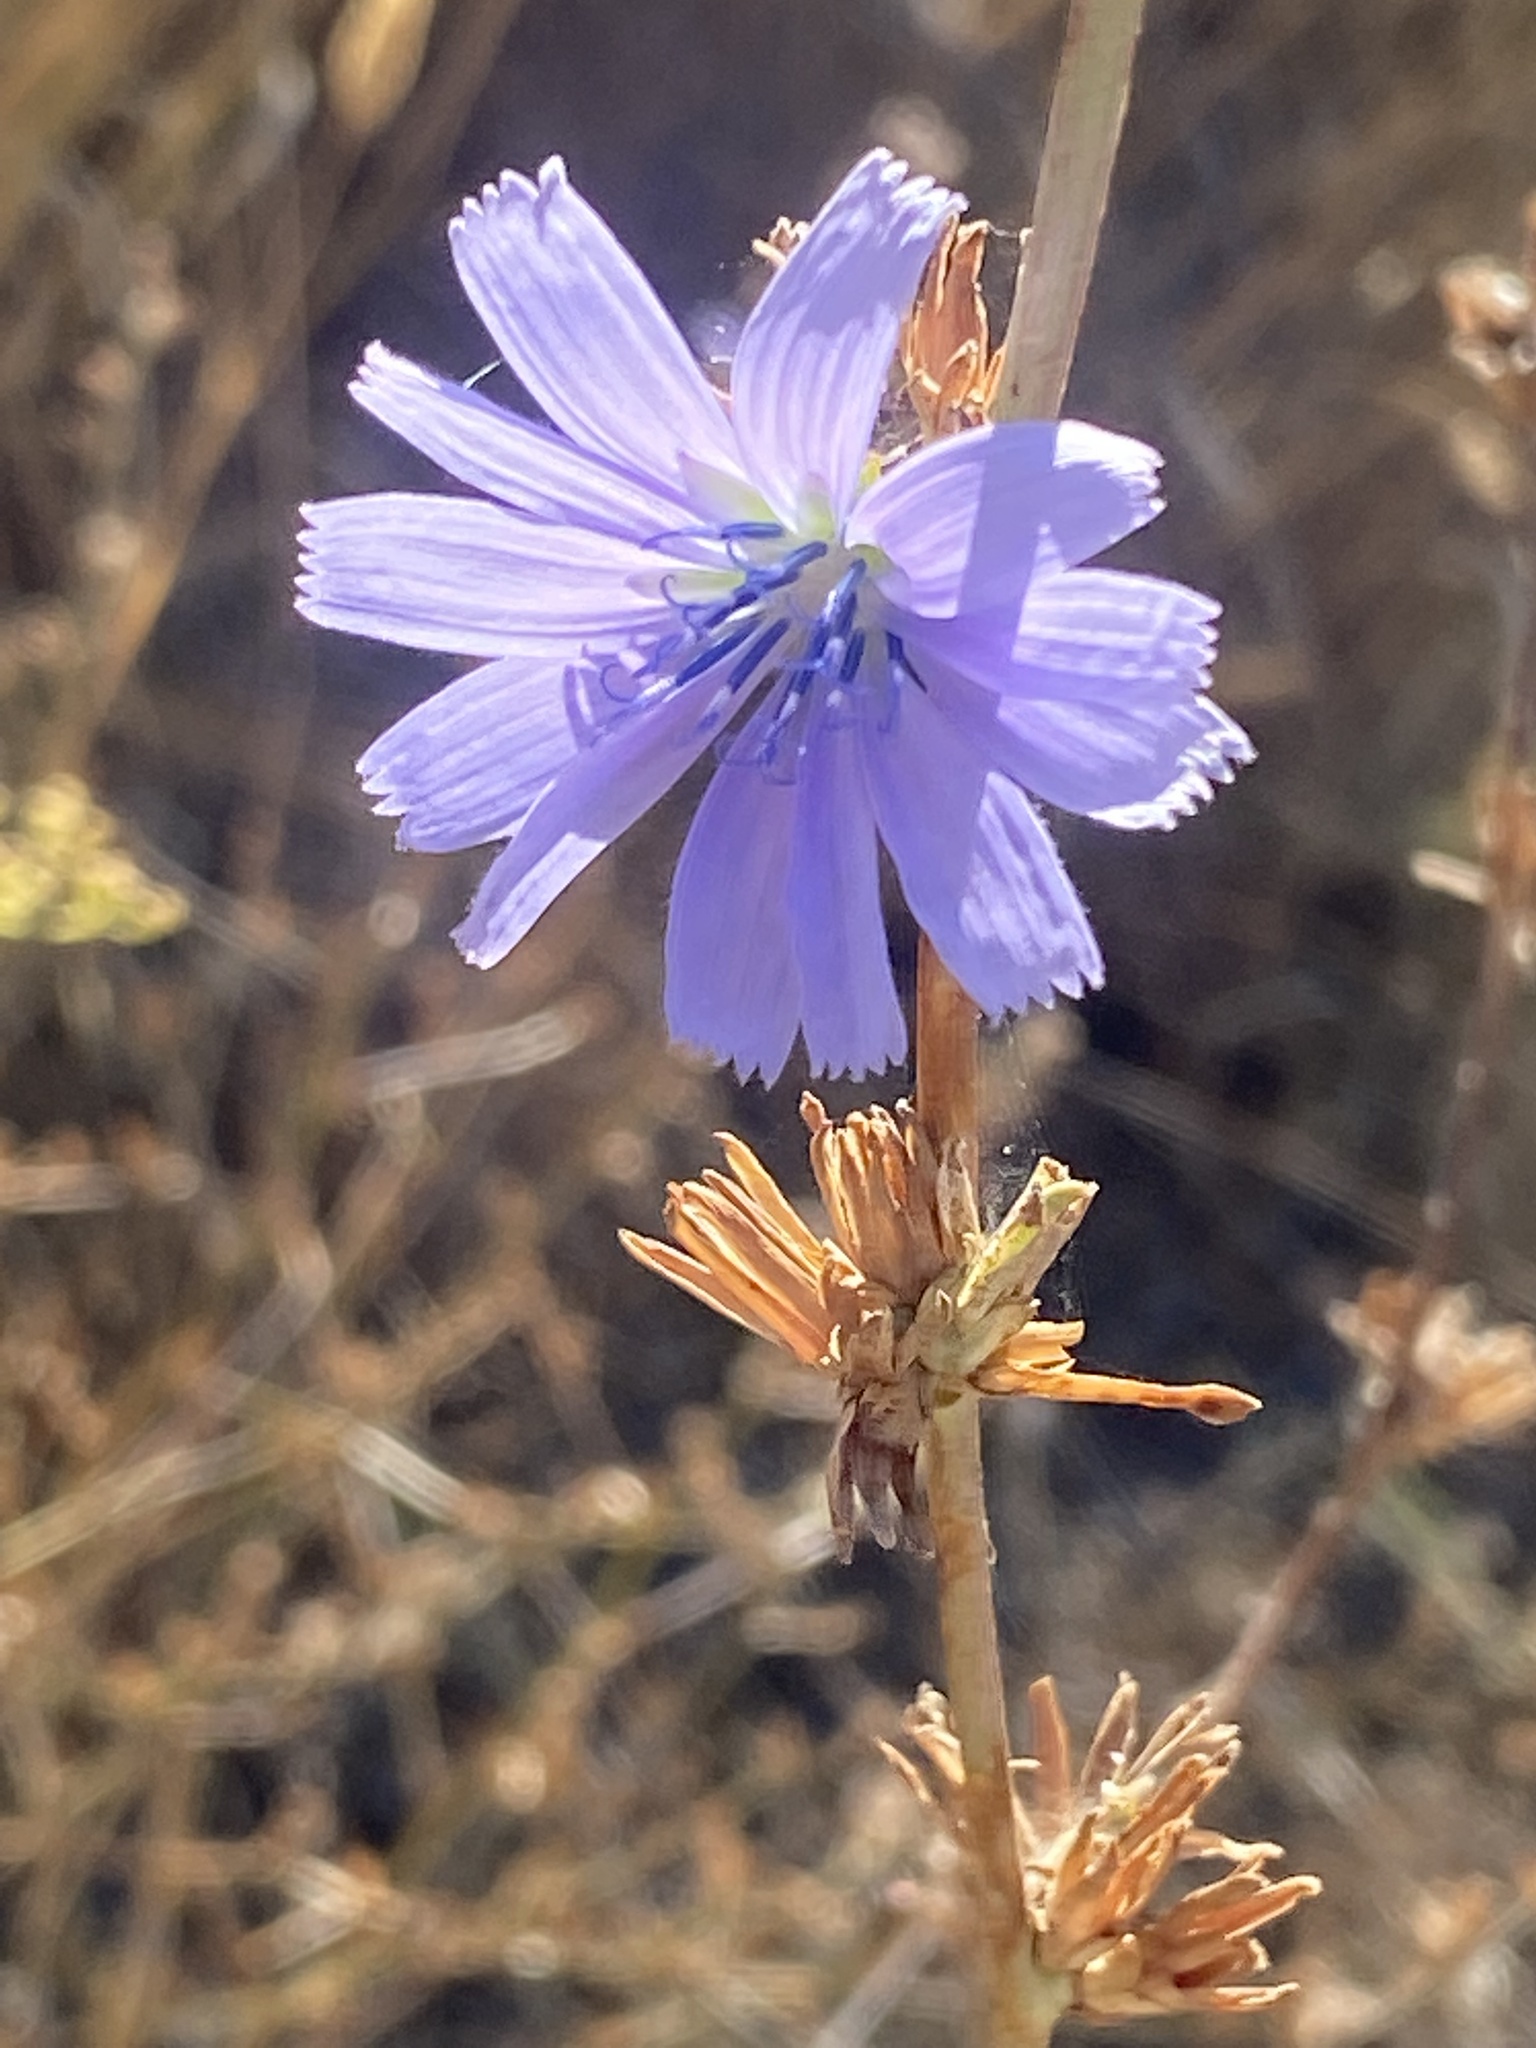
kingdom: Plantae
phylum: Tracheophyta
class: Magnoliopsida
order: Asterales
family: Asteraceae
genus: Cichorium
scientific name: Cichorium intybus
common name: Chicory
